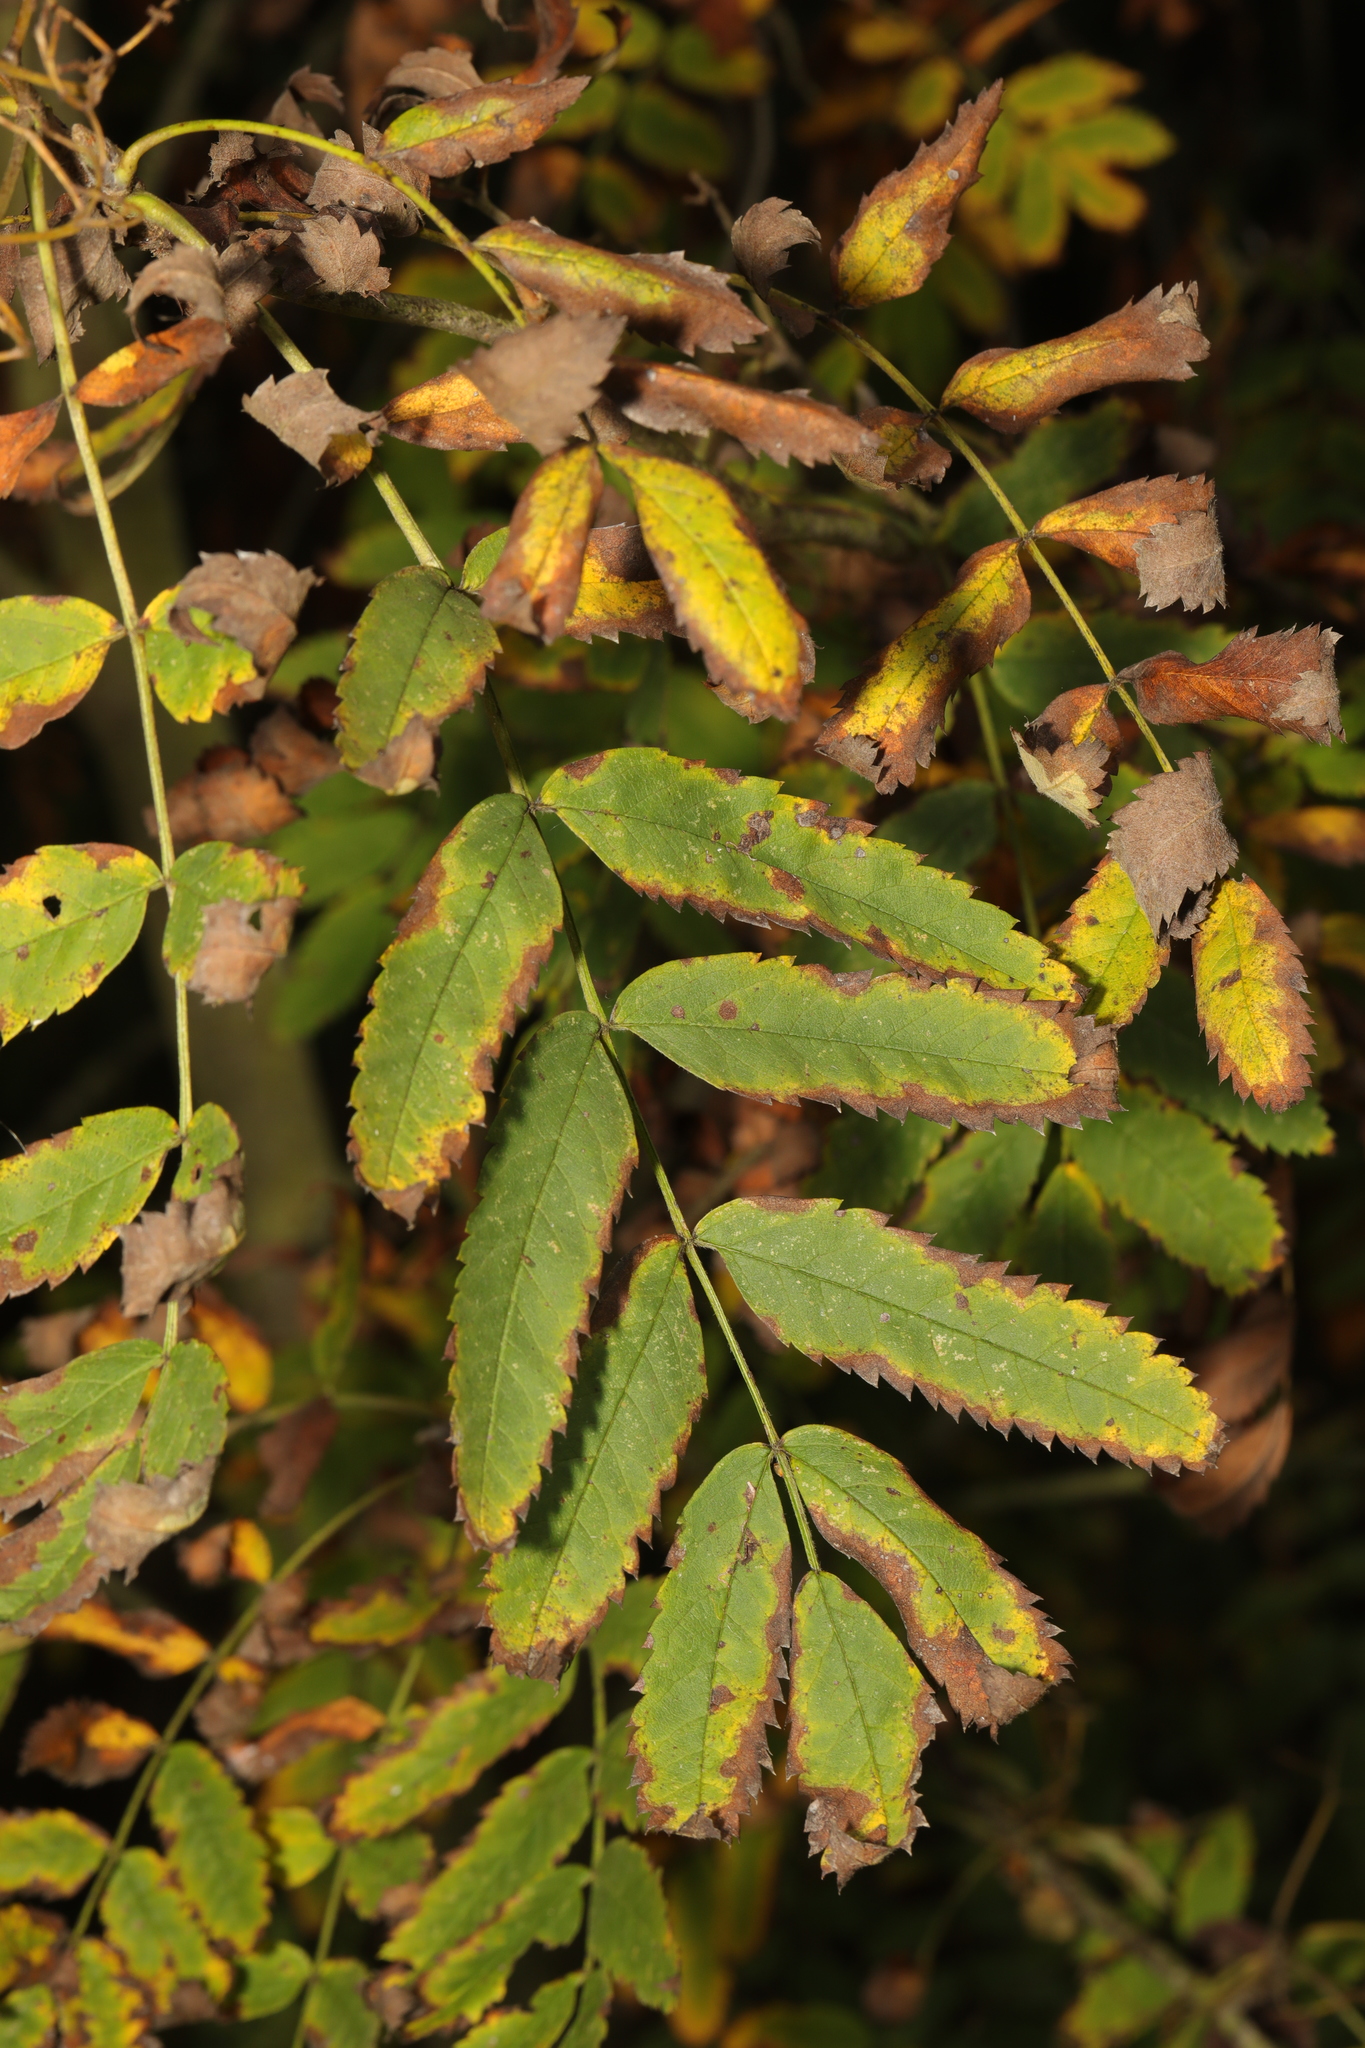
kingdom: Plantae
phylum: Tracheophyta
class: Magnoliopsida
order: Rosales
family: Rosaceae
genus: Sorbus
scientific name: Sorbus aucuparia
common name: Rowan
